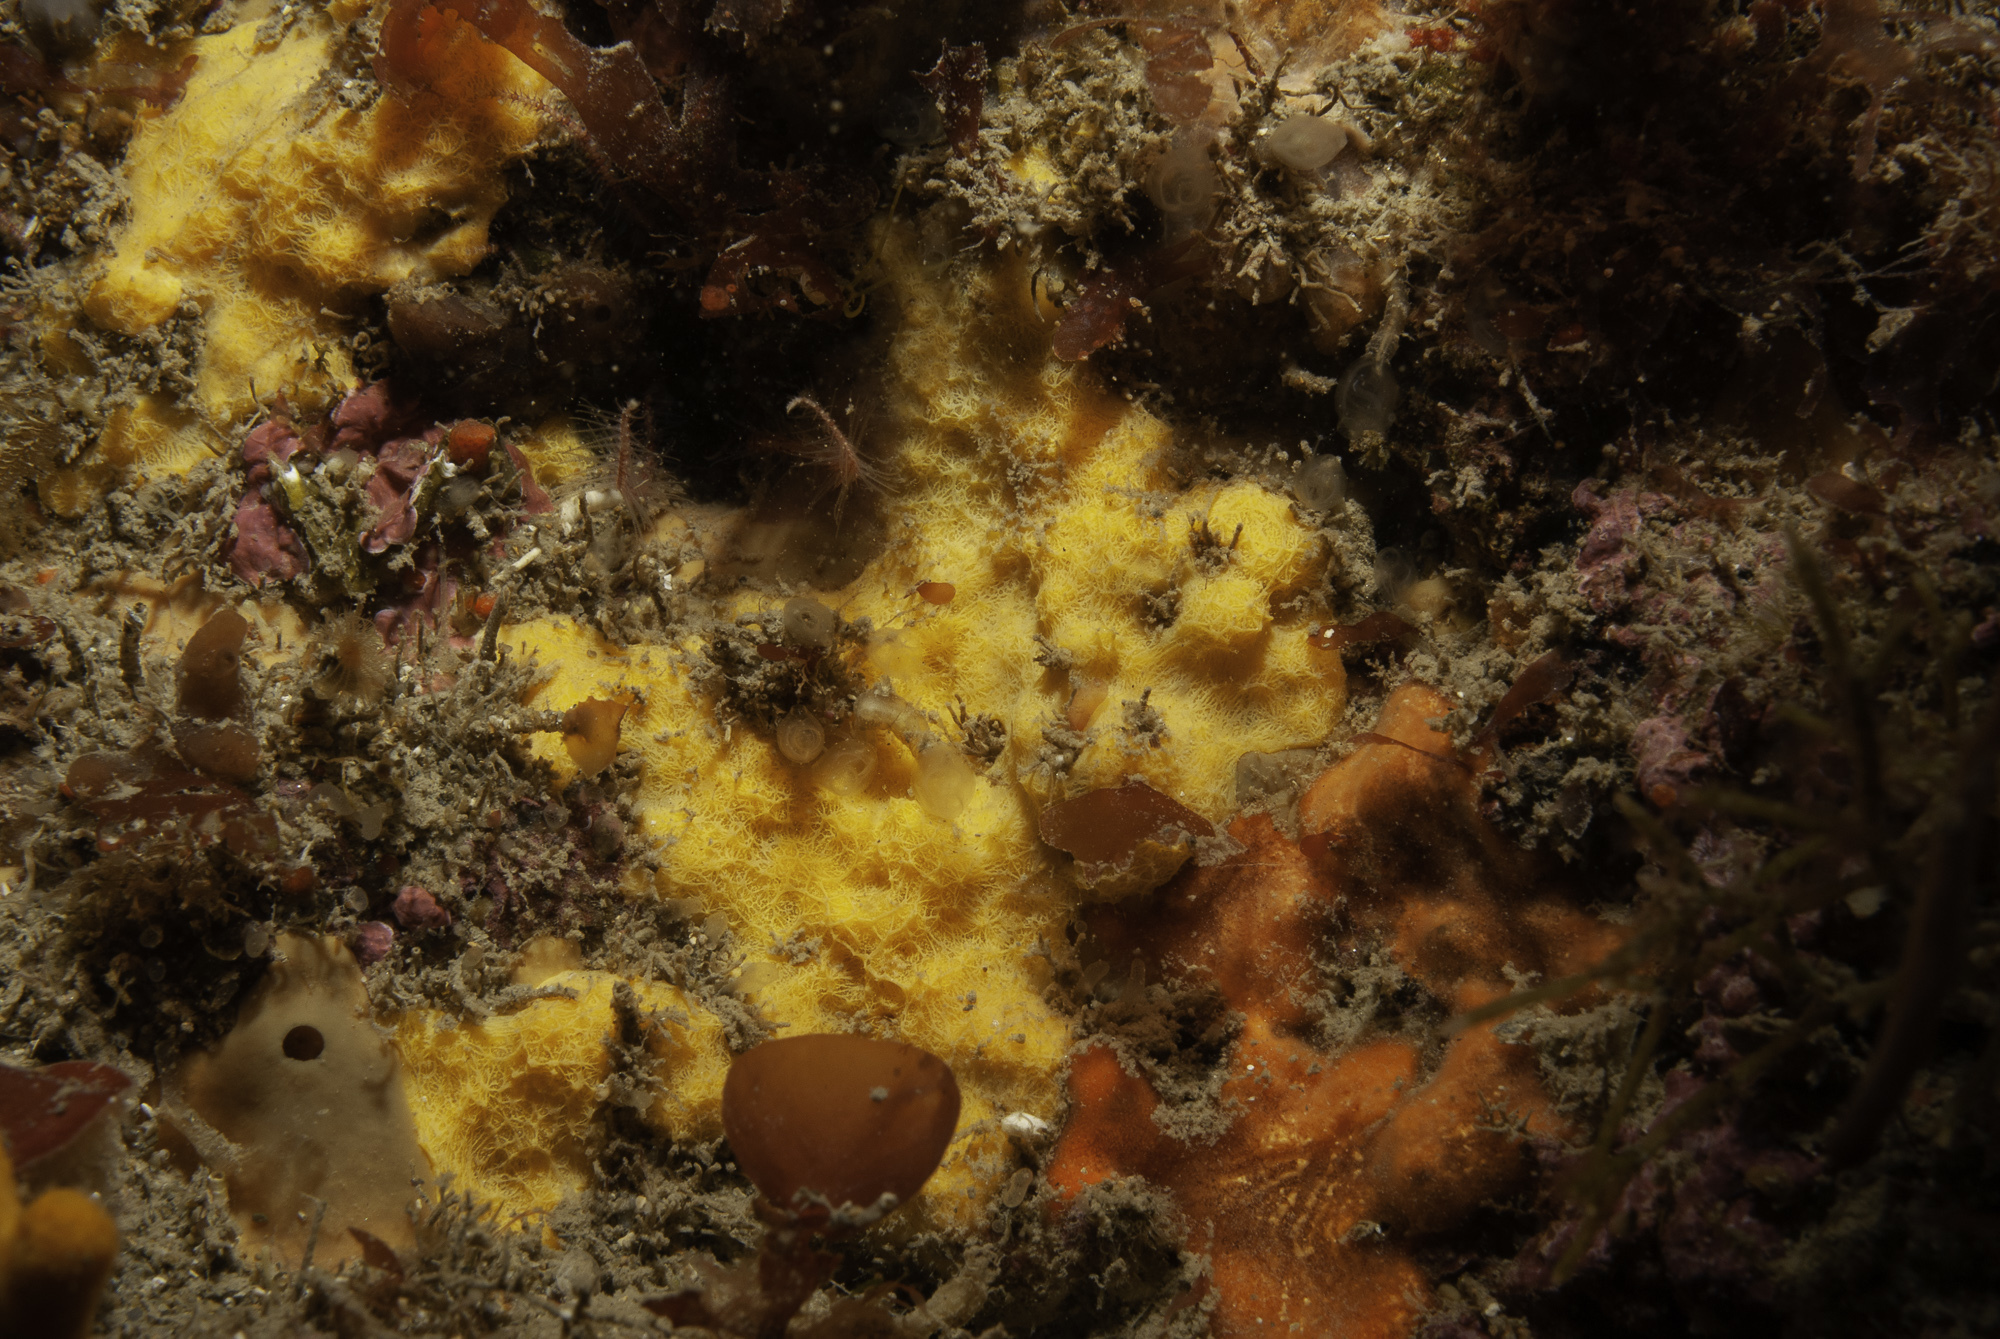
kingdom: Animalia
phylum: Porifera
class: Demospongiae
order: Agelasida
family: Hymerhabdiidae
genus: Prosuberites
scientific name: Prosuberites longispinus
